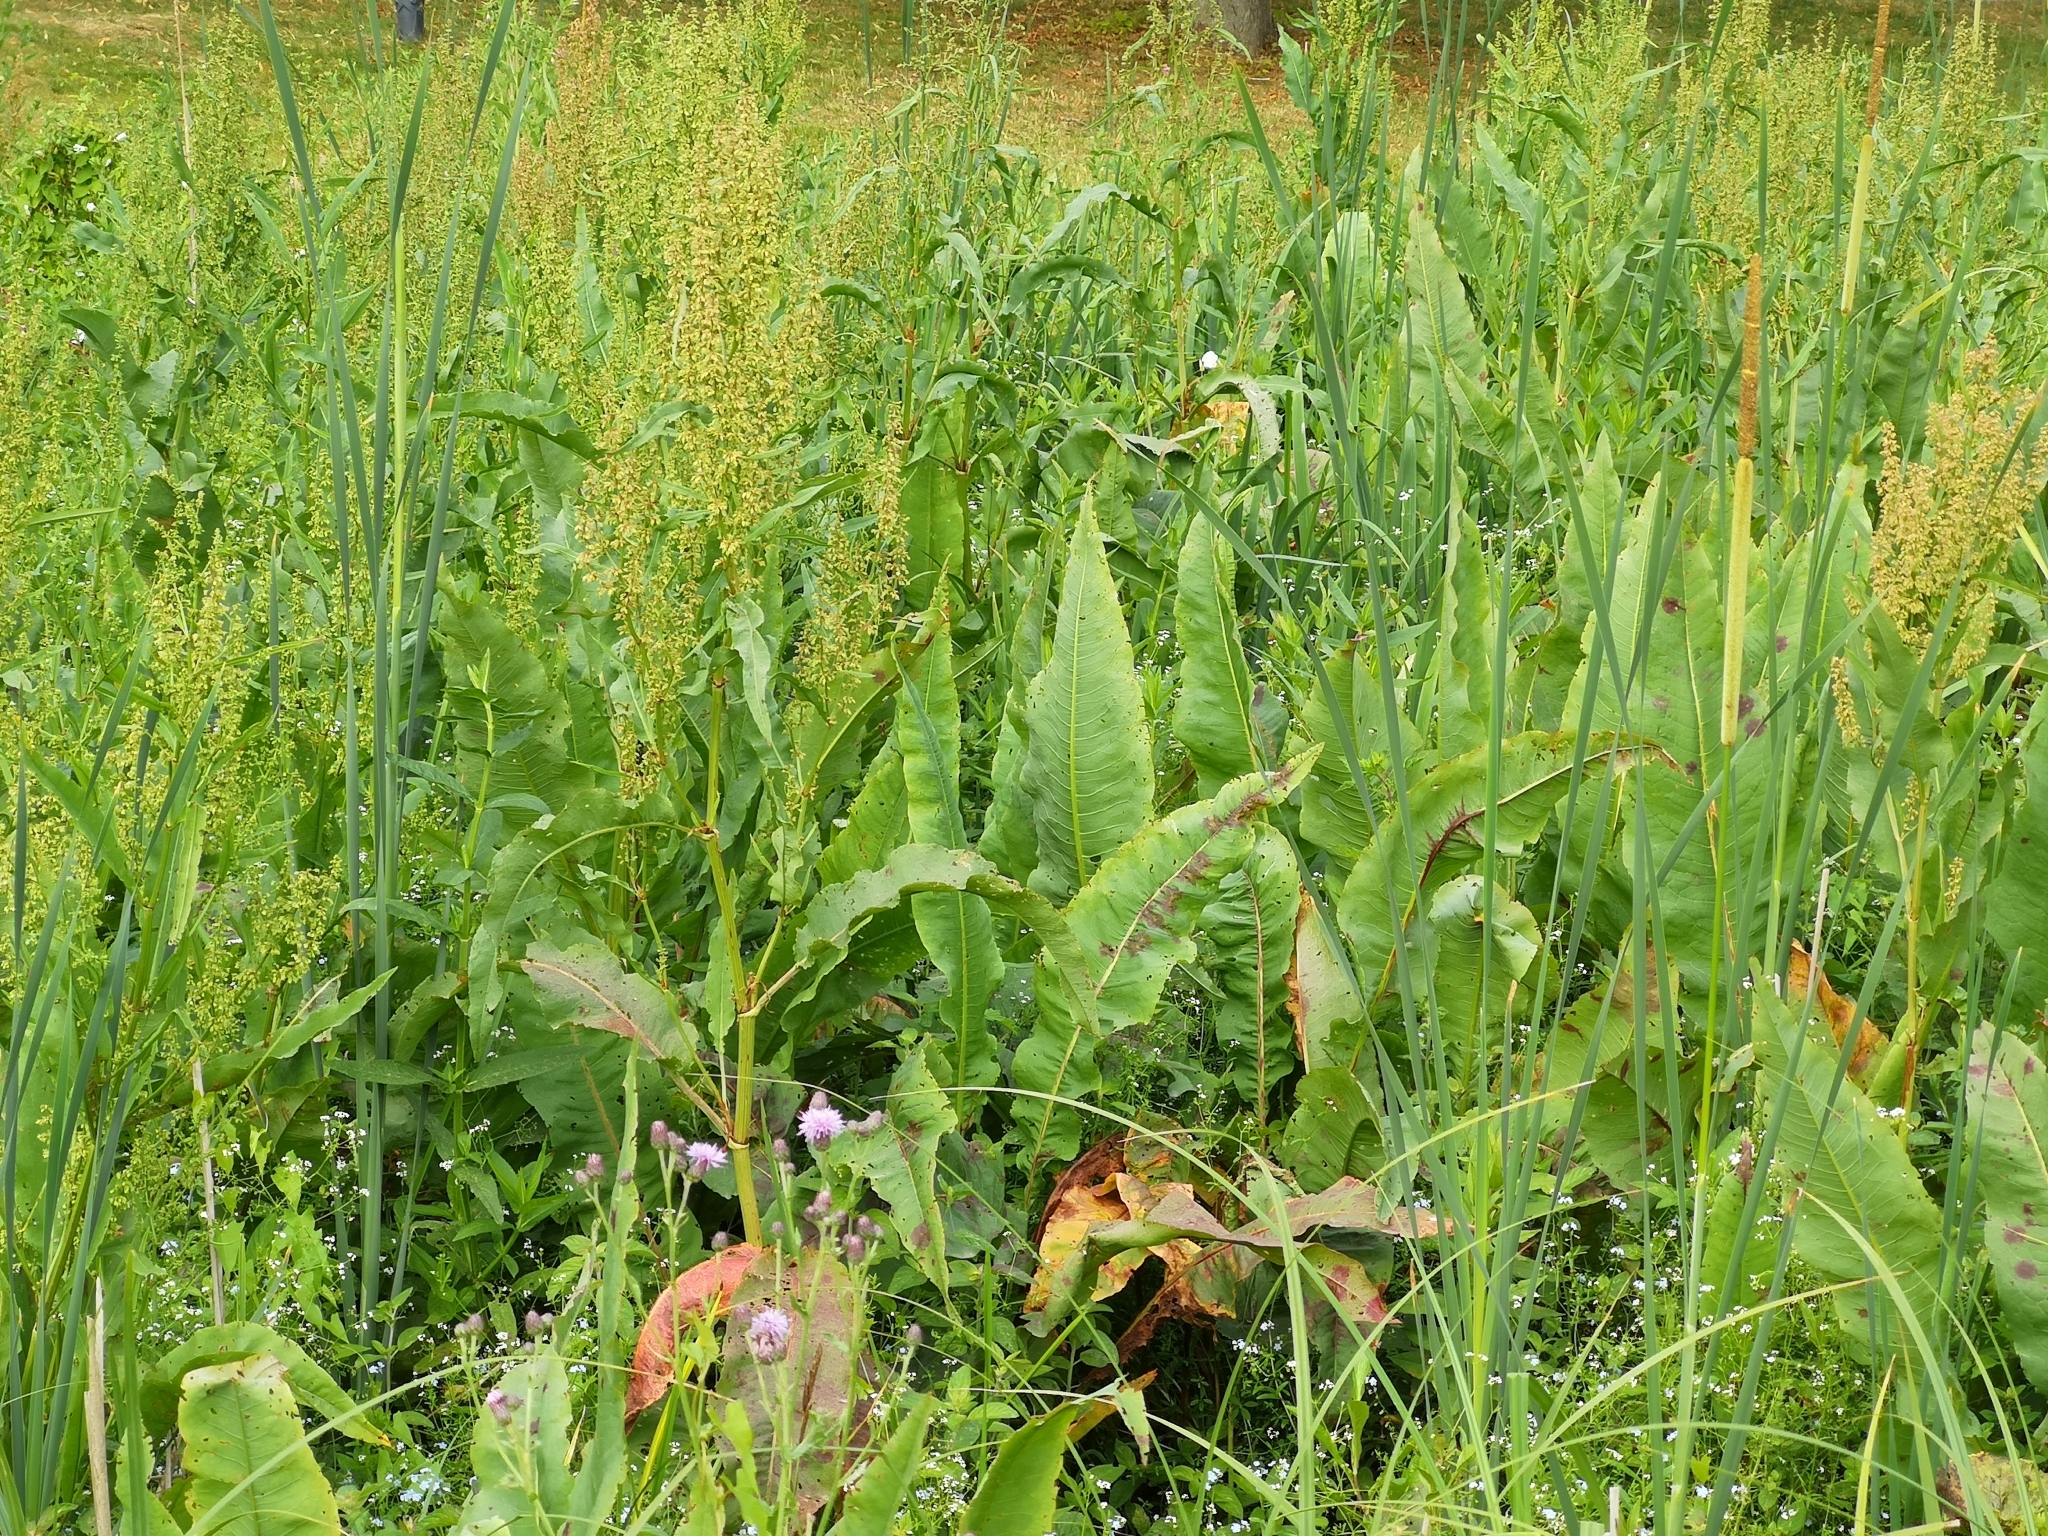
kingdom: Plantae
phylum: Tracheophyta
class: Magnoliopsida
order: Caryophyllales
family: Polygonaceae
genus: Rumex
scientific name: Rumex hydrolapathum
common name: Water dock
